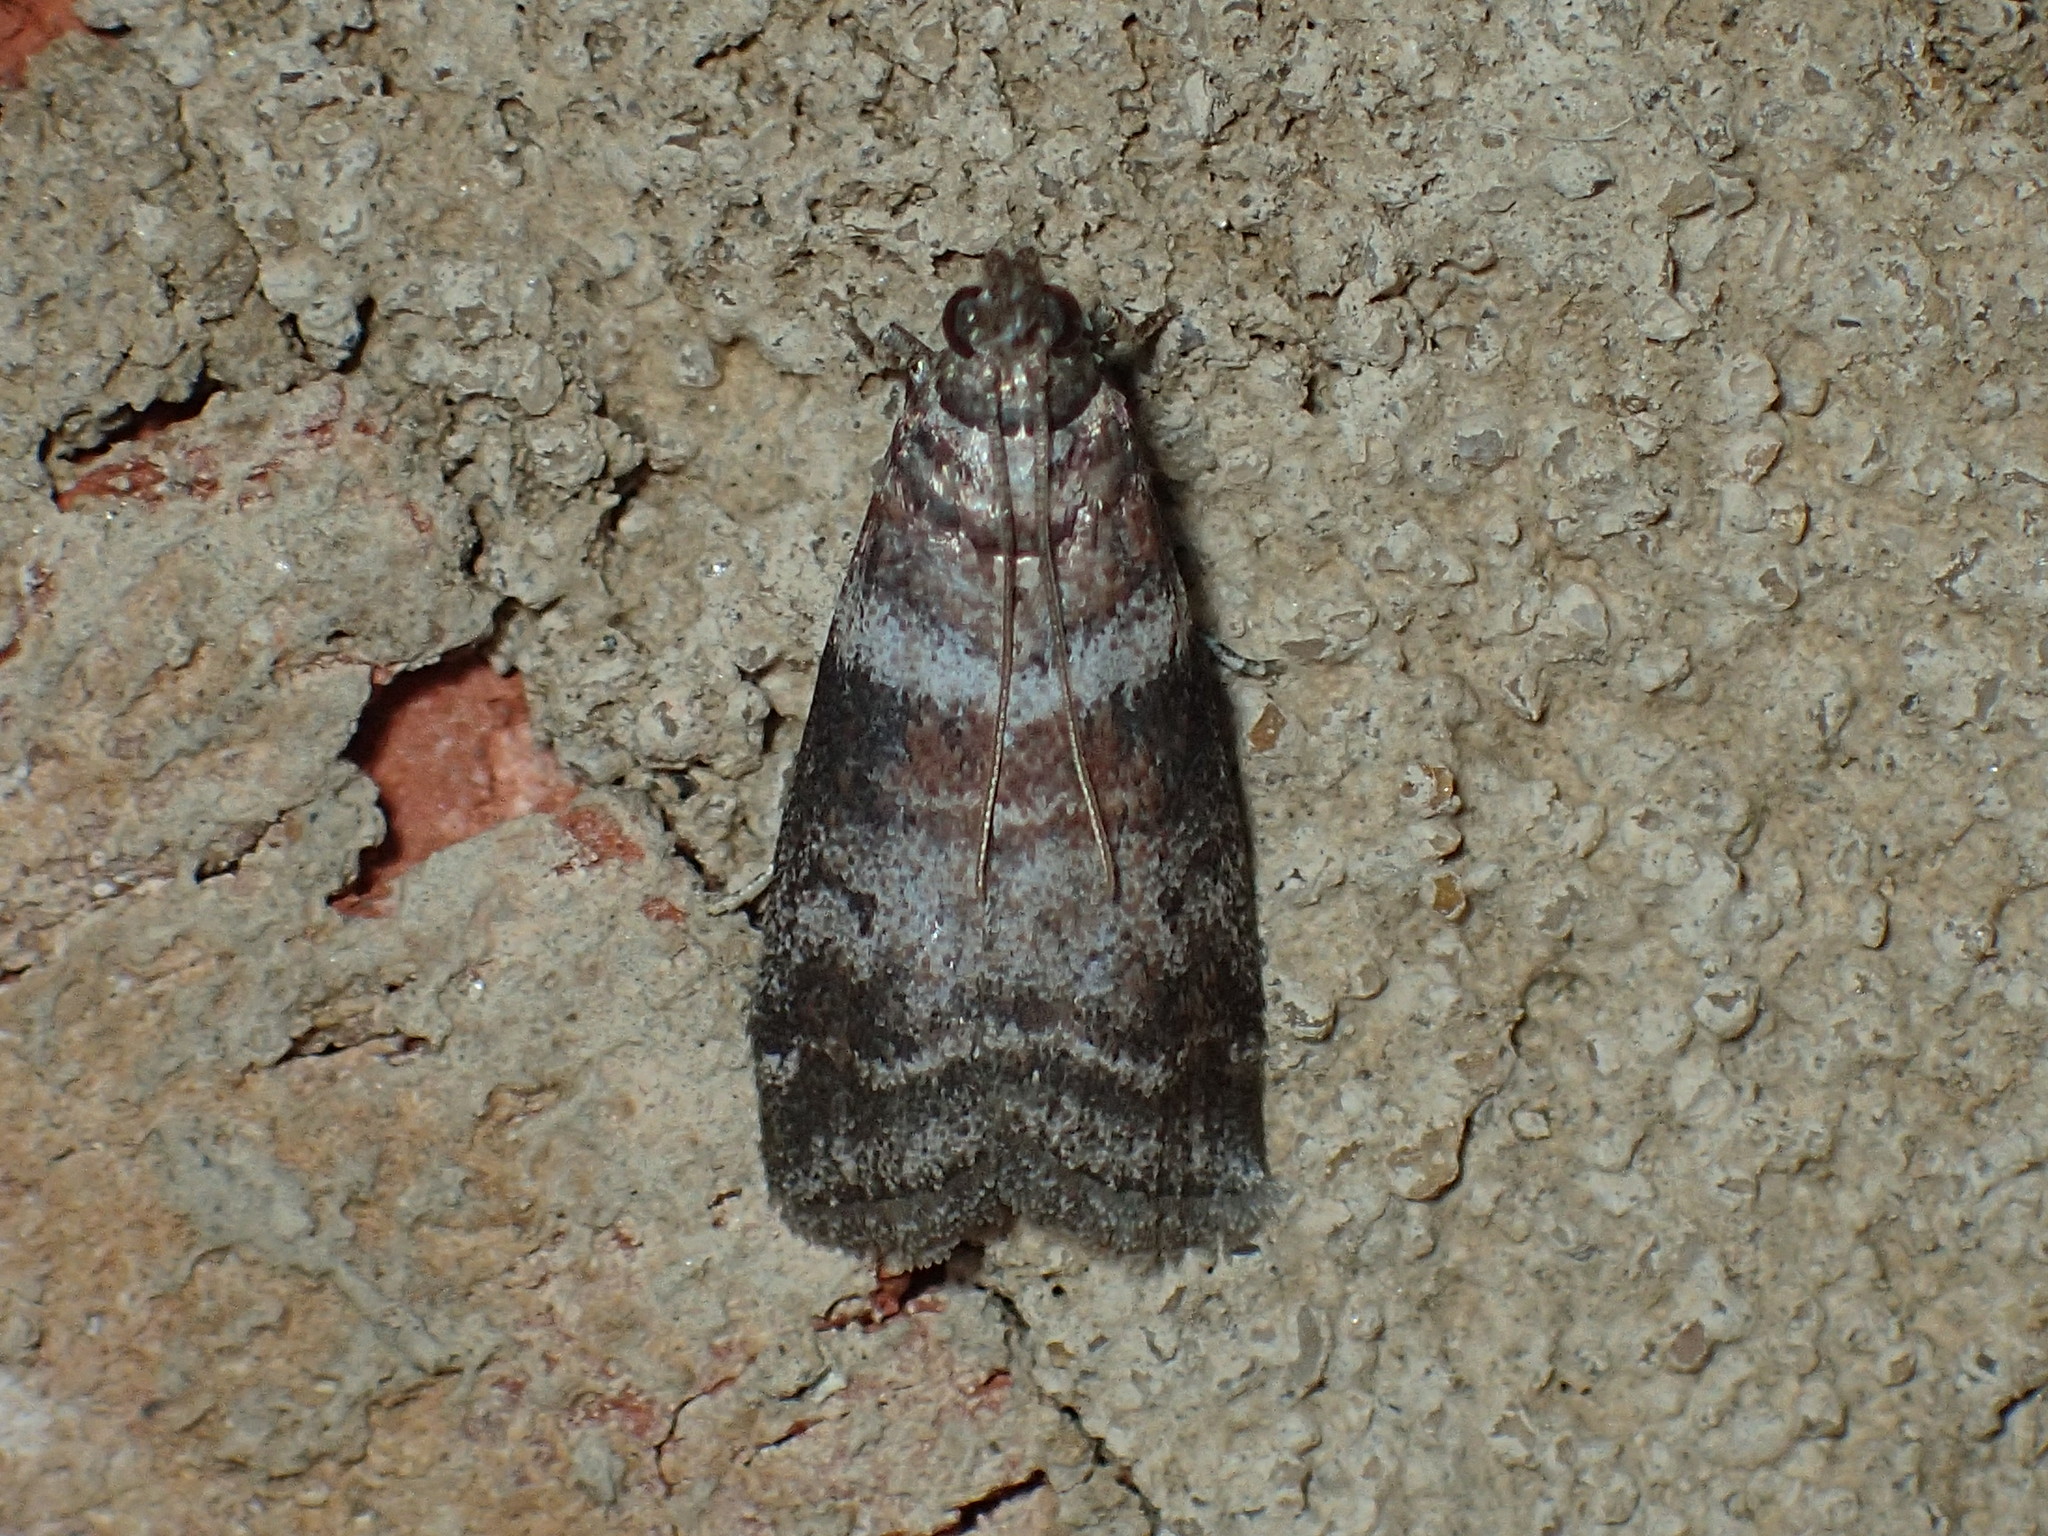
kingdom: Animalia
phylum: Arthropoda
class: Insecta
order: Lepidoptera
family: Pyralidae
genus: Sciota
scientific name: Sciota uvinella
